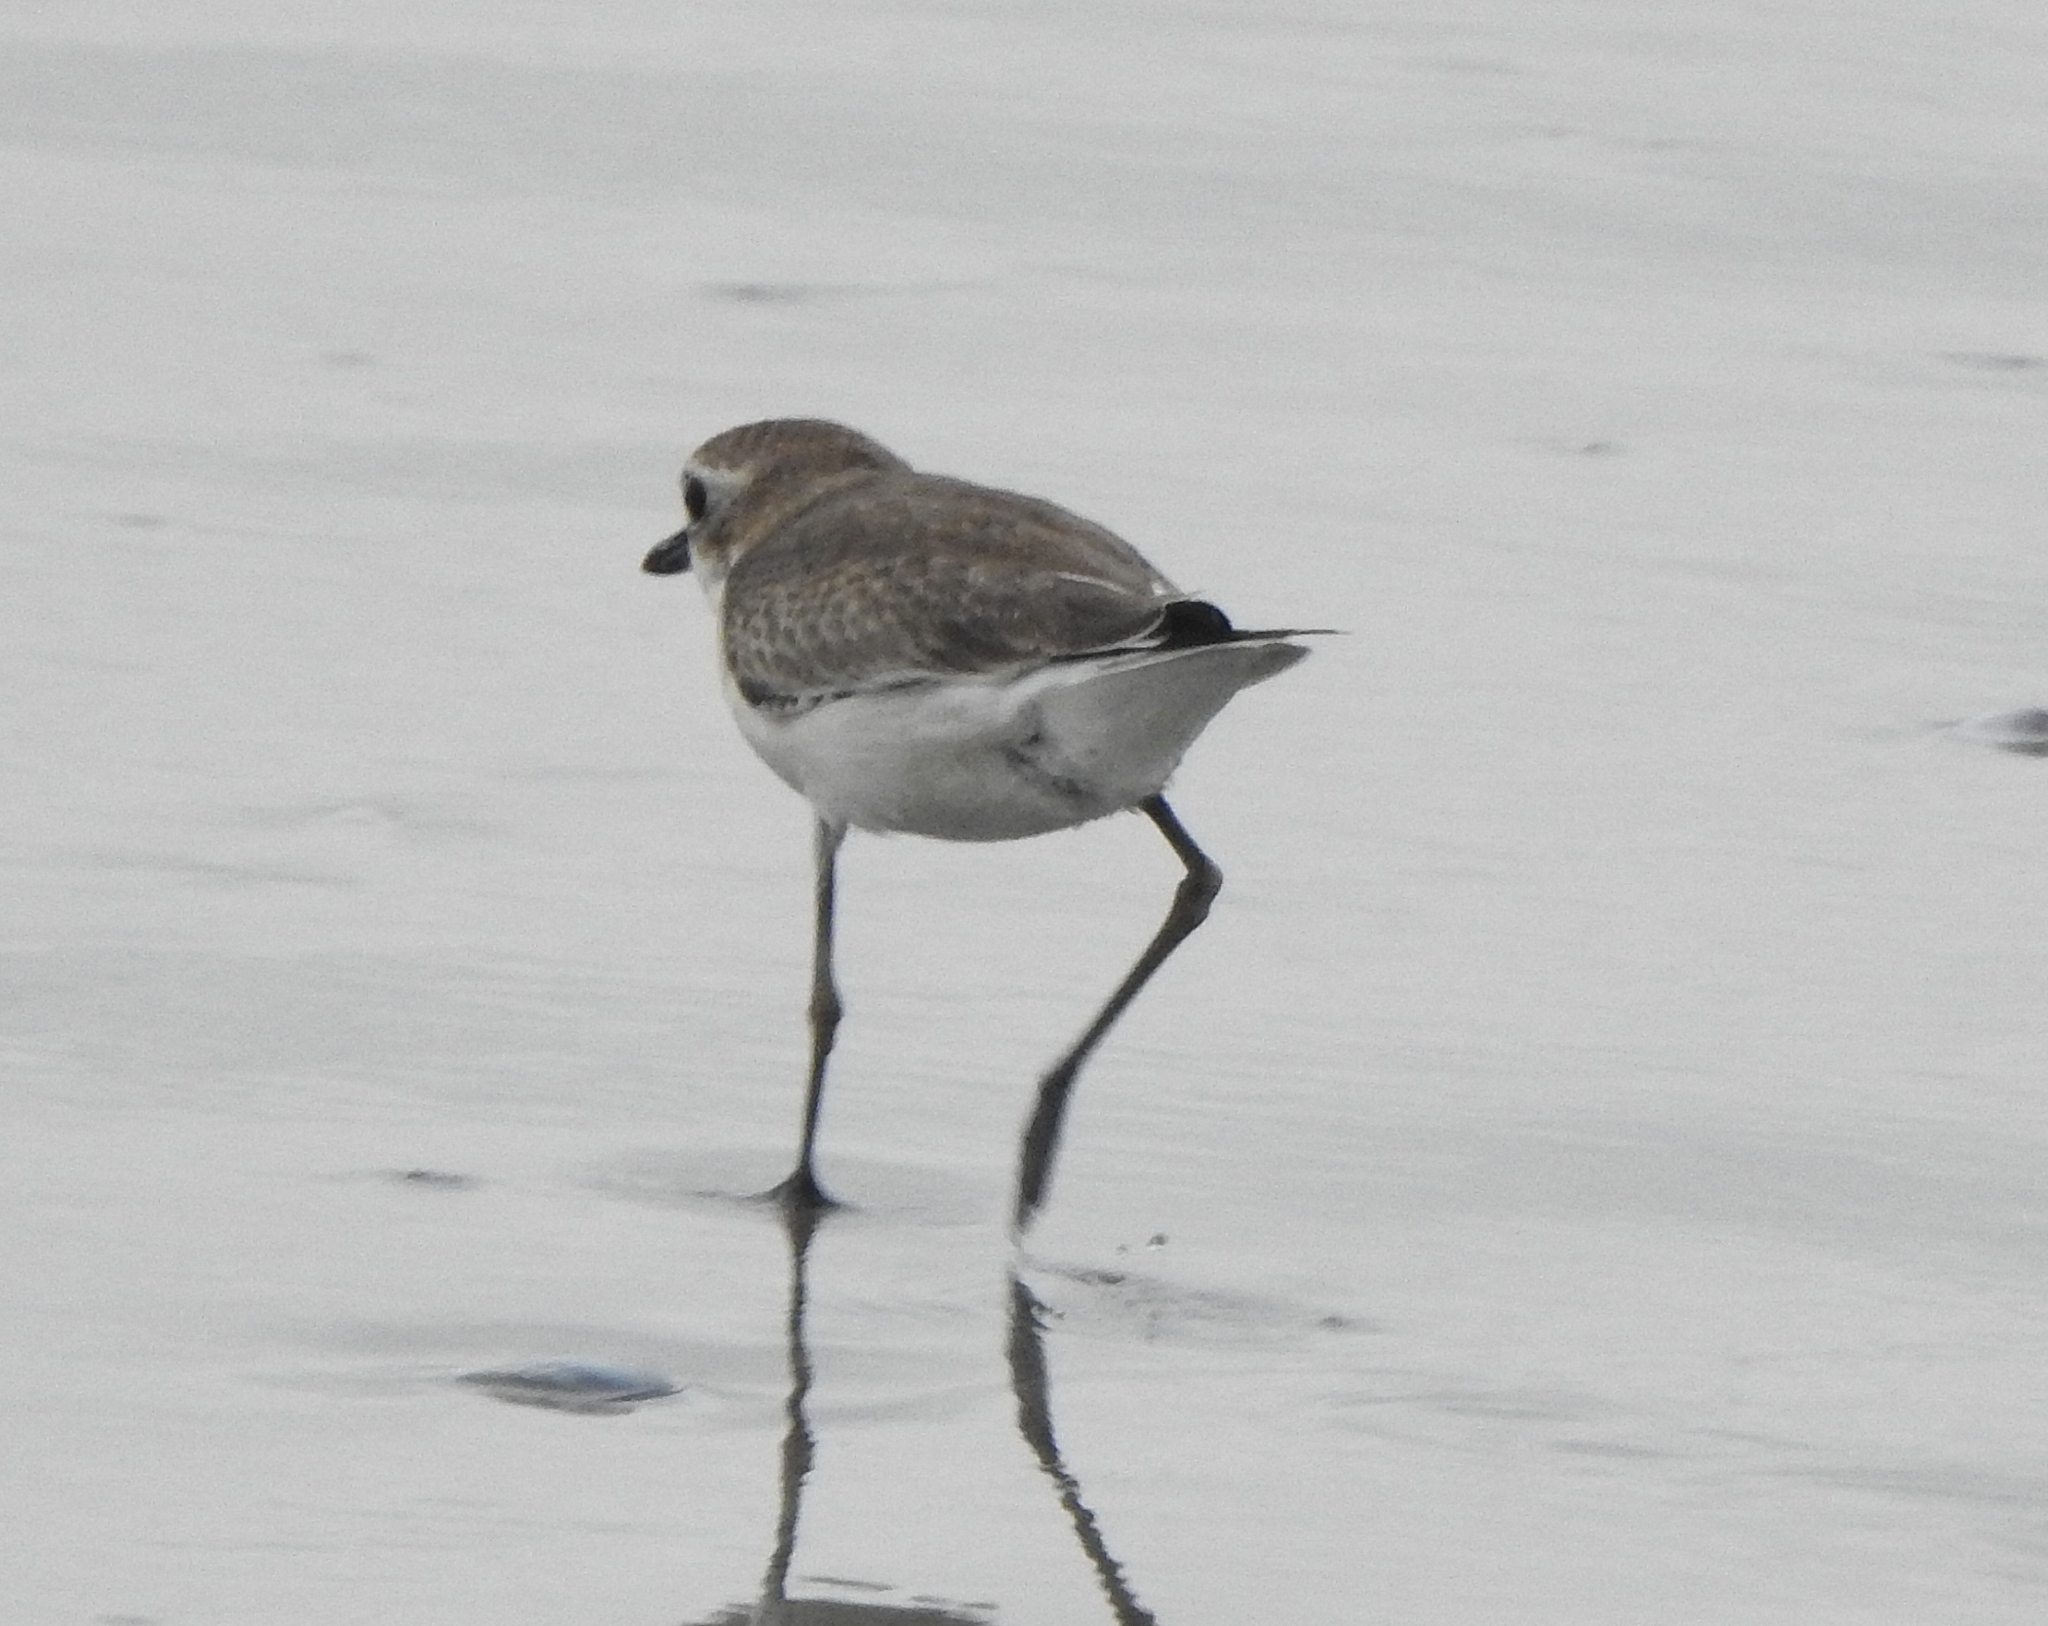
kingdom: Animalia
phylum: Chordata
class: Aves
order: Charadriiformes
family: Charadriidae
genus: Anarhynchus
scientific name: Anarhynchus
